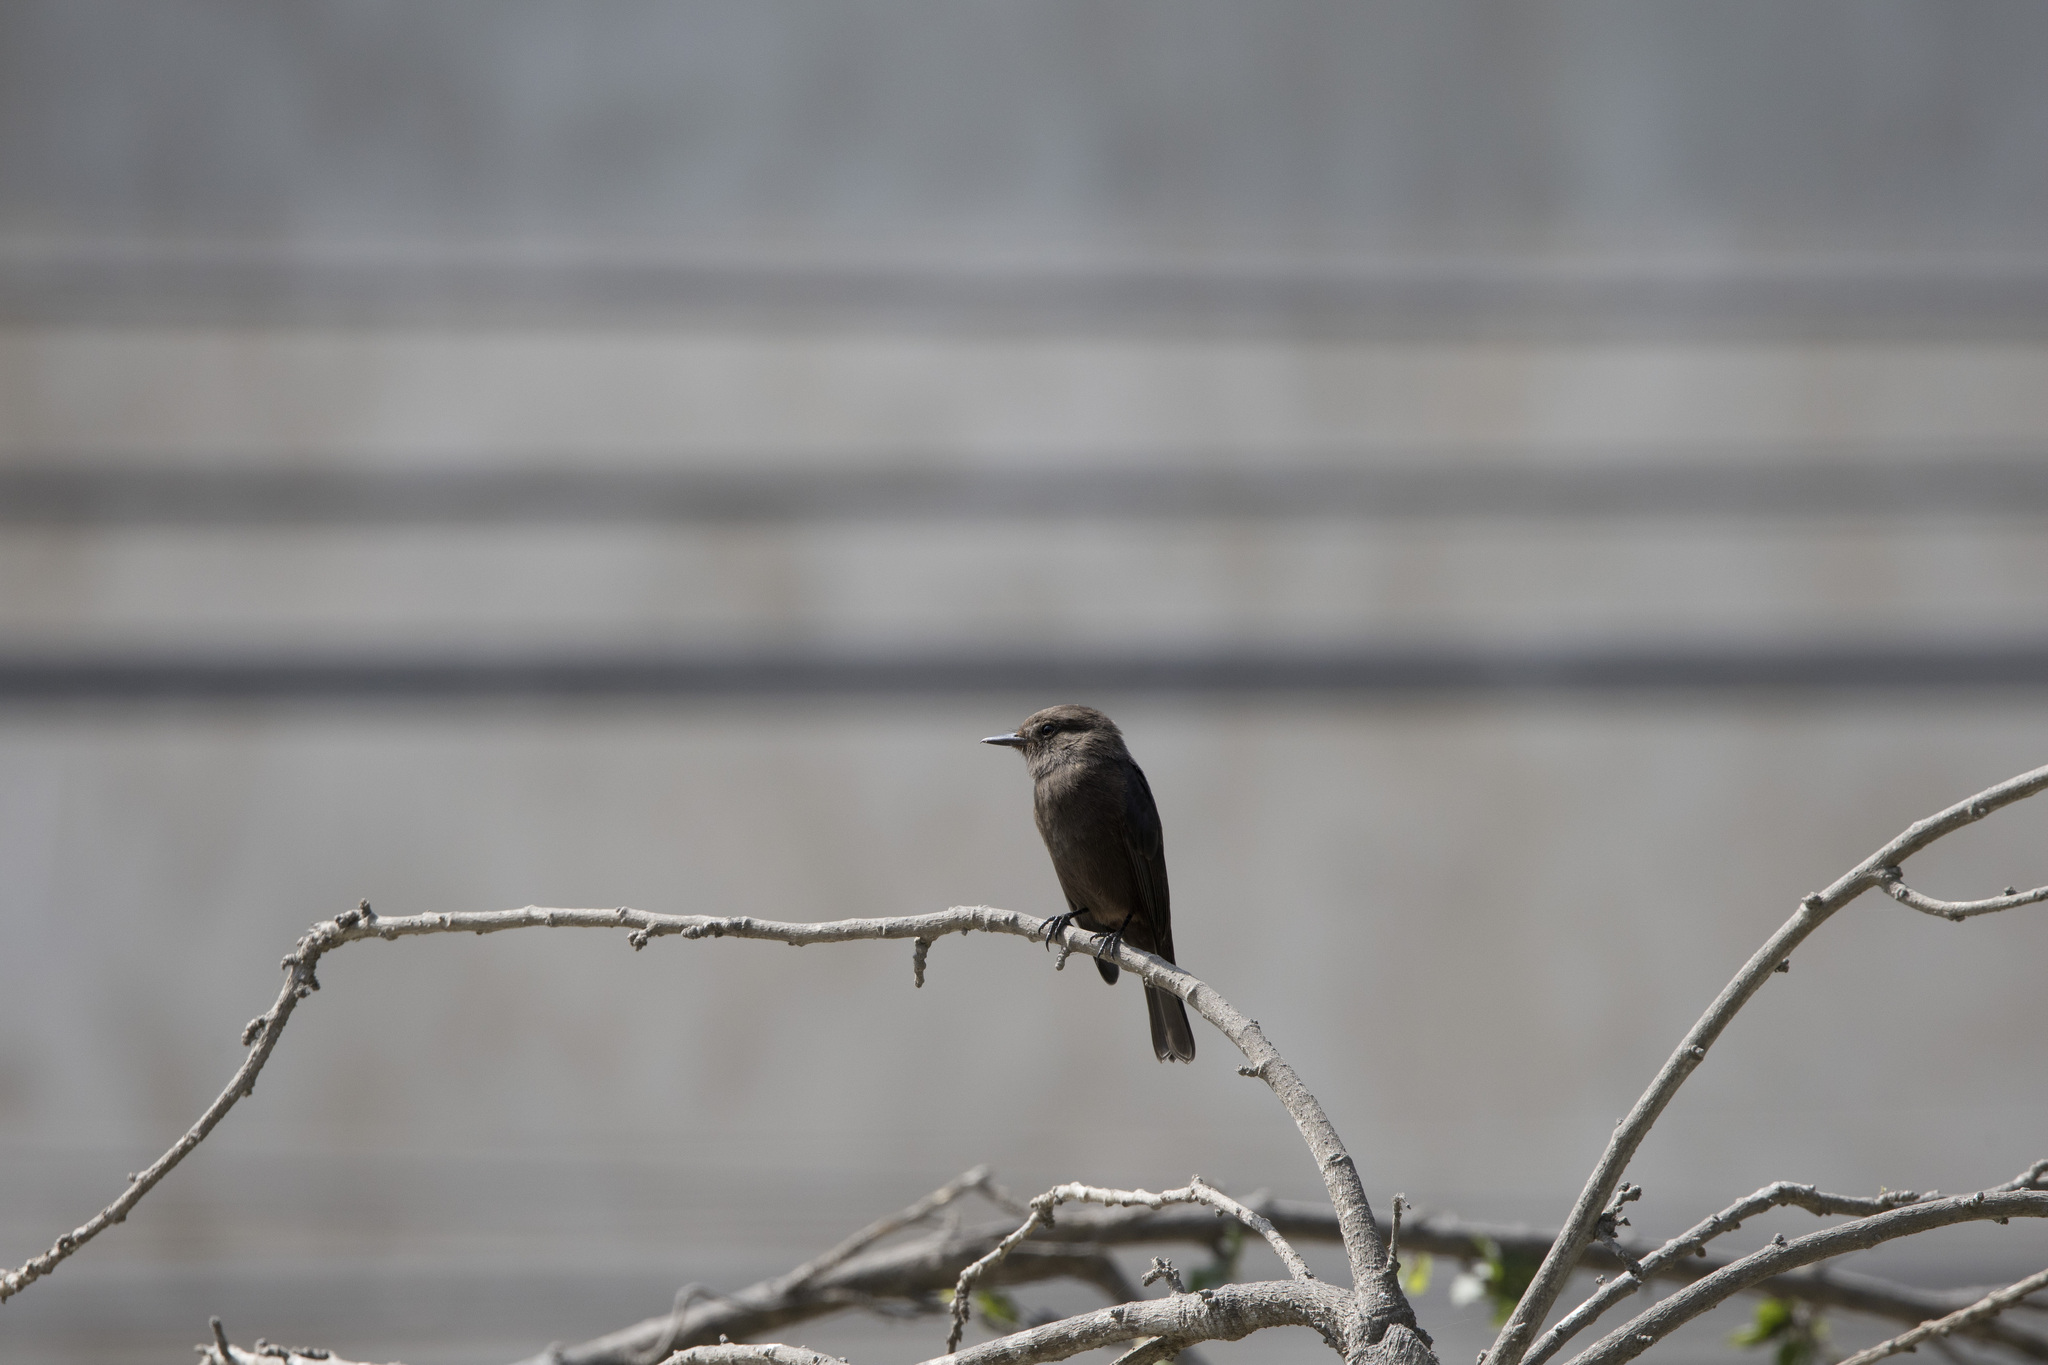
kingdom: Animalia
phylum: Chordata
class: Aves
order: Passeriformes
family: Tyrannidae
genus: Pyrocephalus
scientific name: Pyrocephalus rubinus
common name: Vermilion flycatcher
